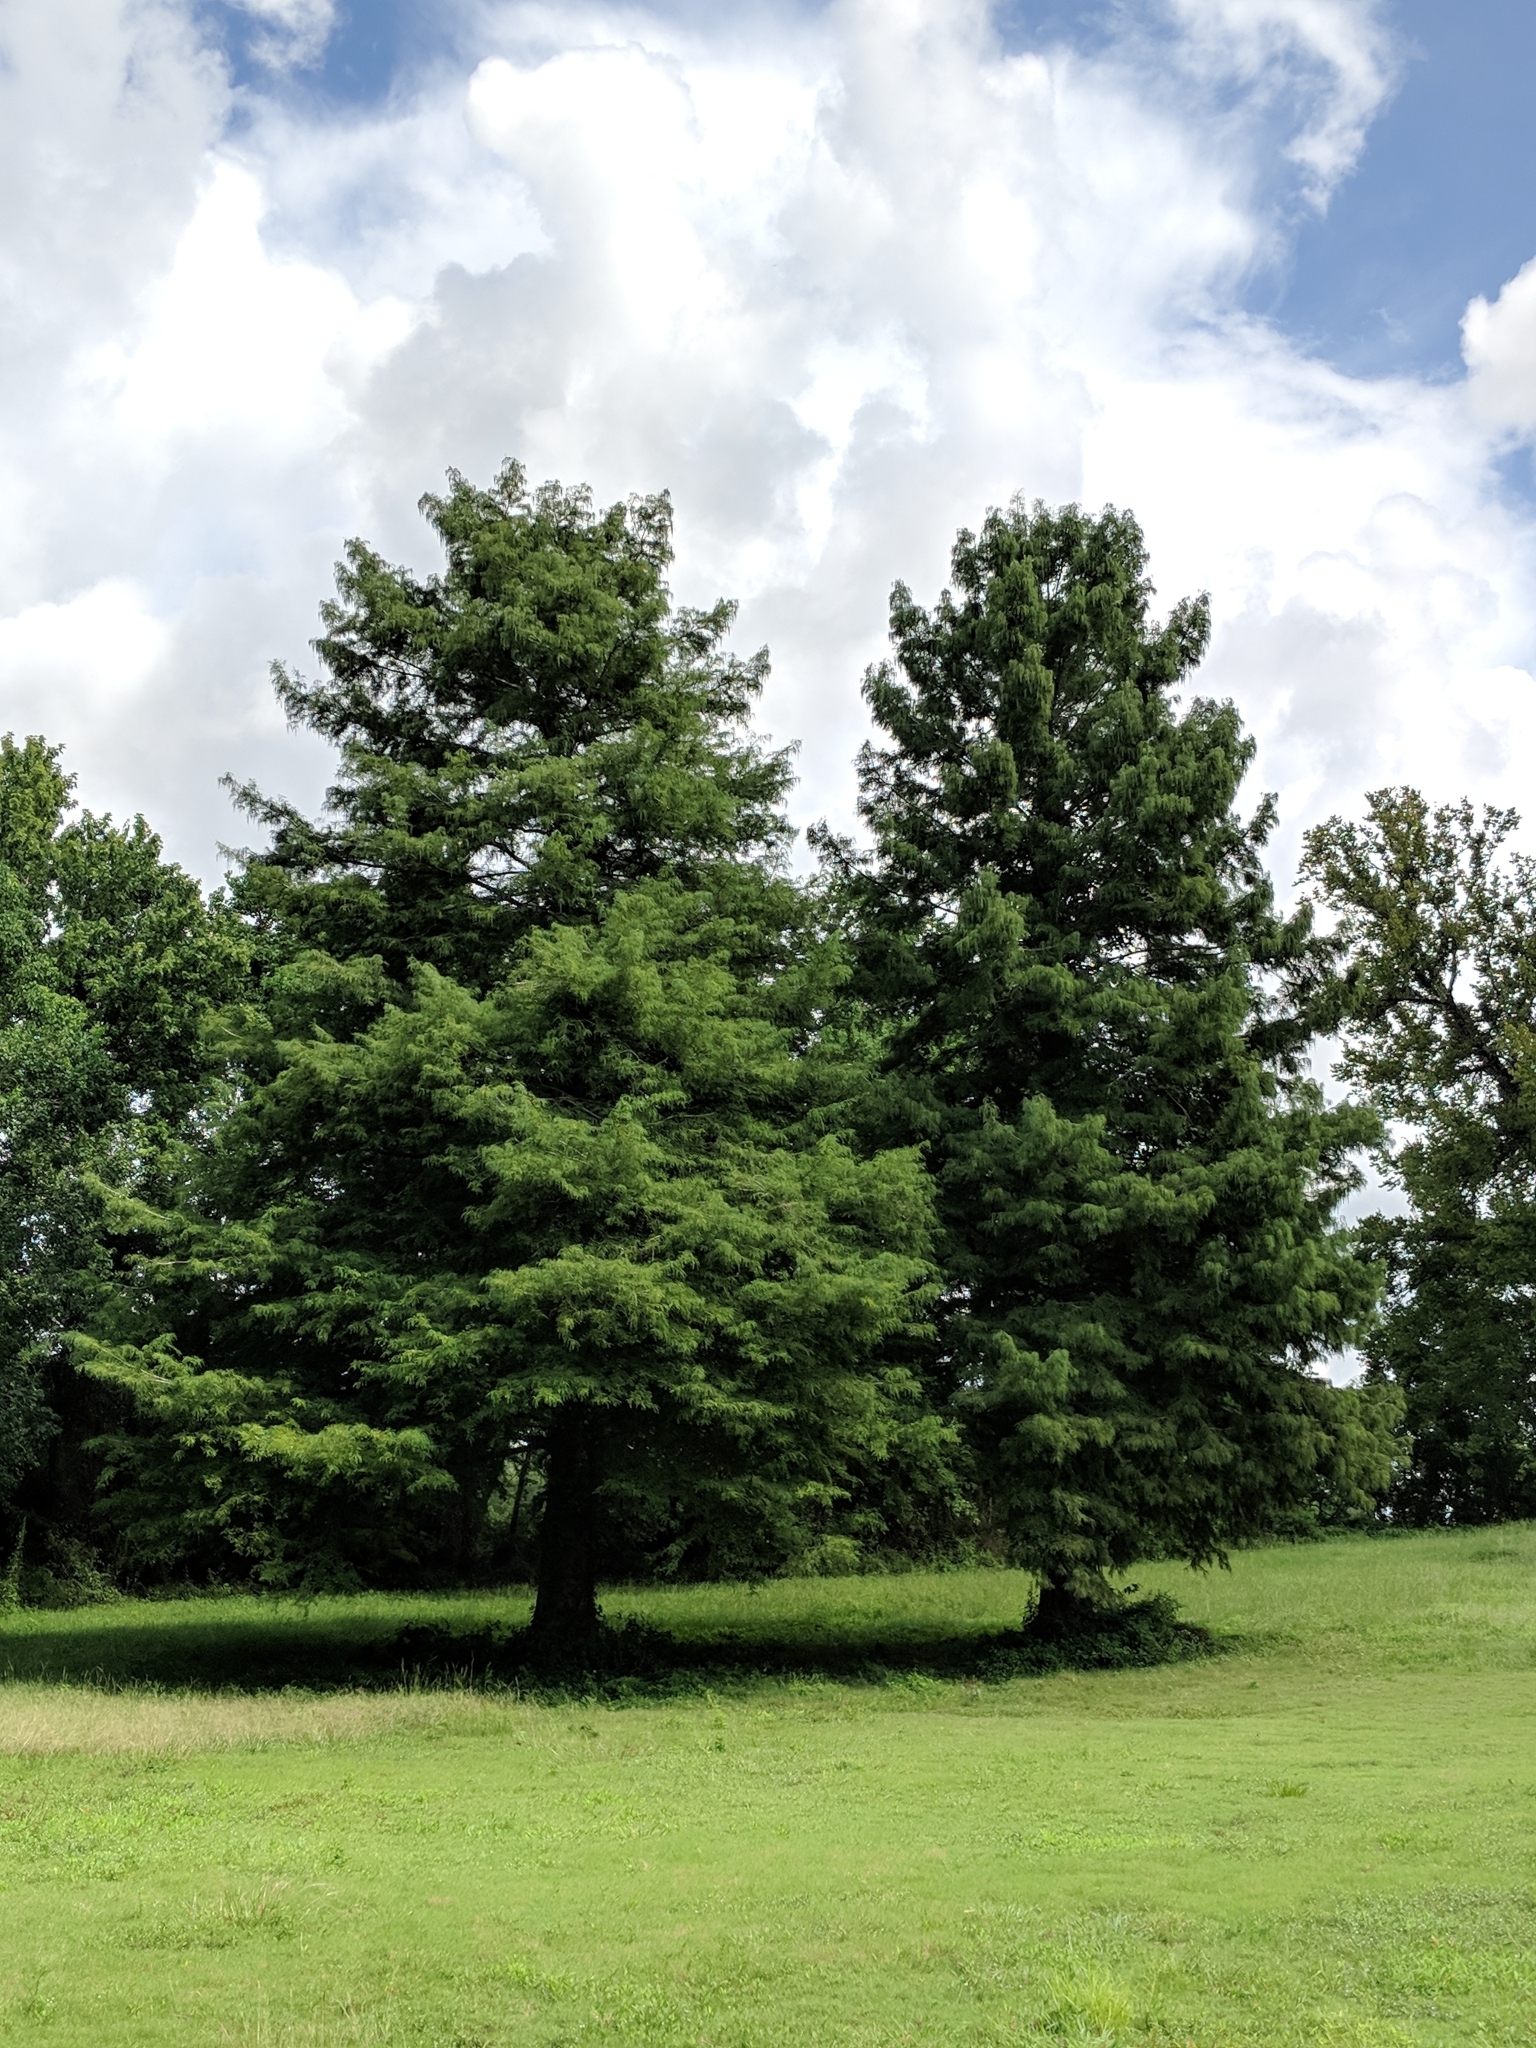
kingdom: Plantae
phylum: Tracheophyta
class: Pinopsida
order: Pinales
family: Cupressaceae
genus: Taxodium
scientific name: Taxodium distichum
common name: Bald cypress
